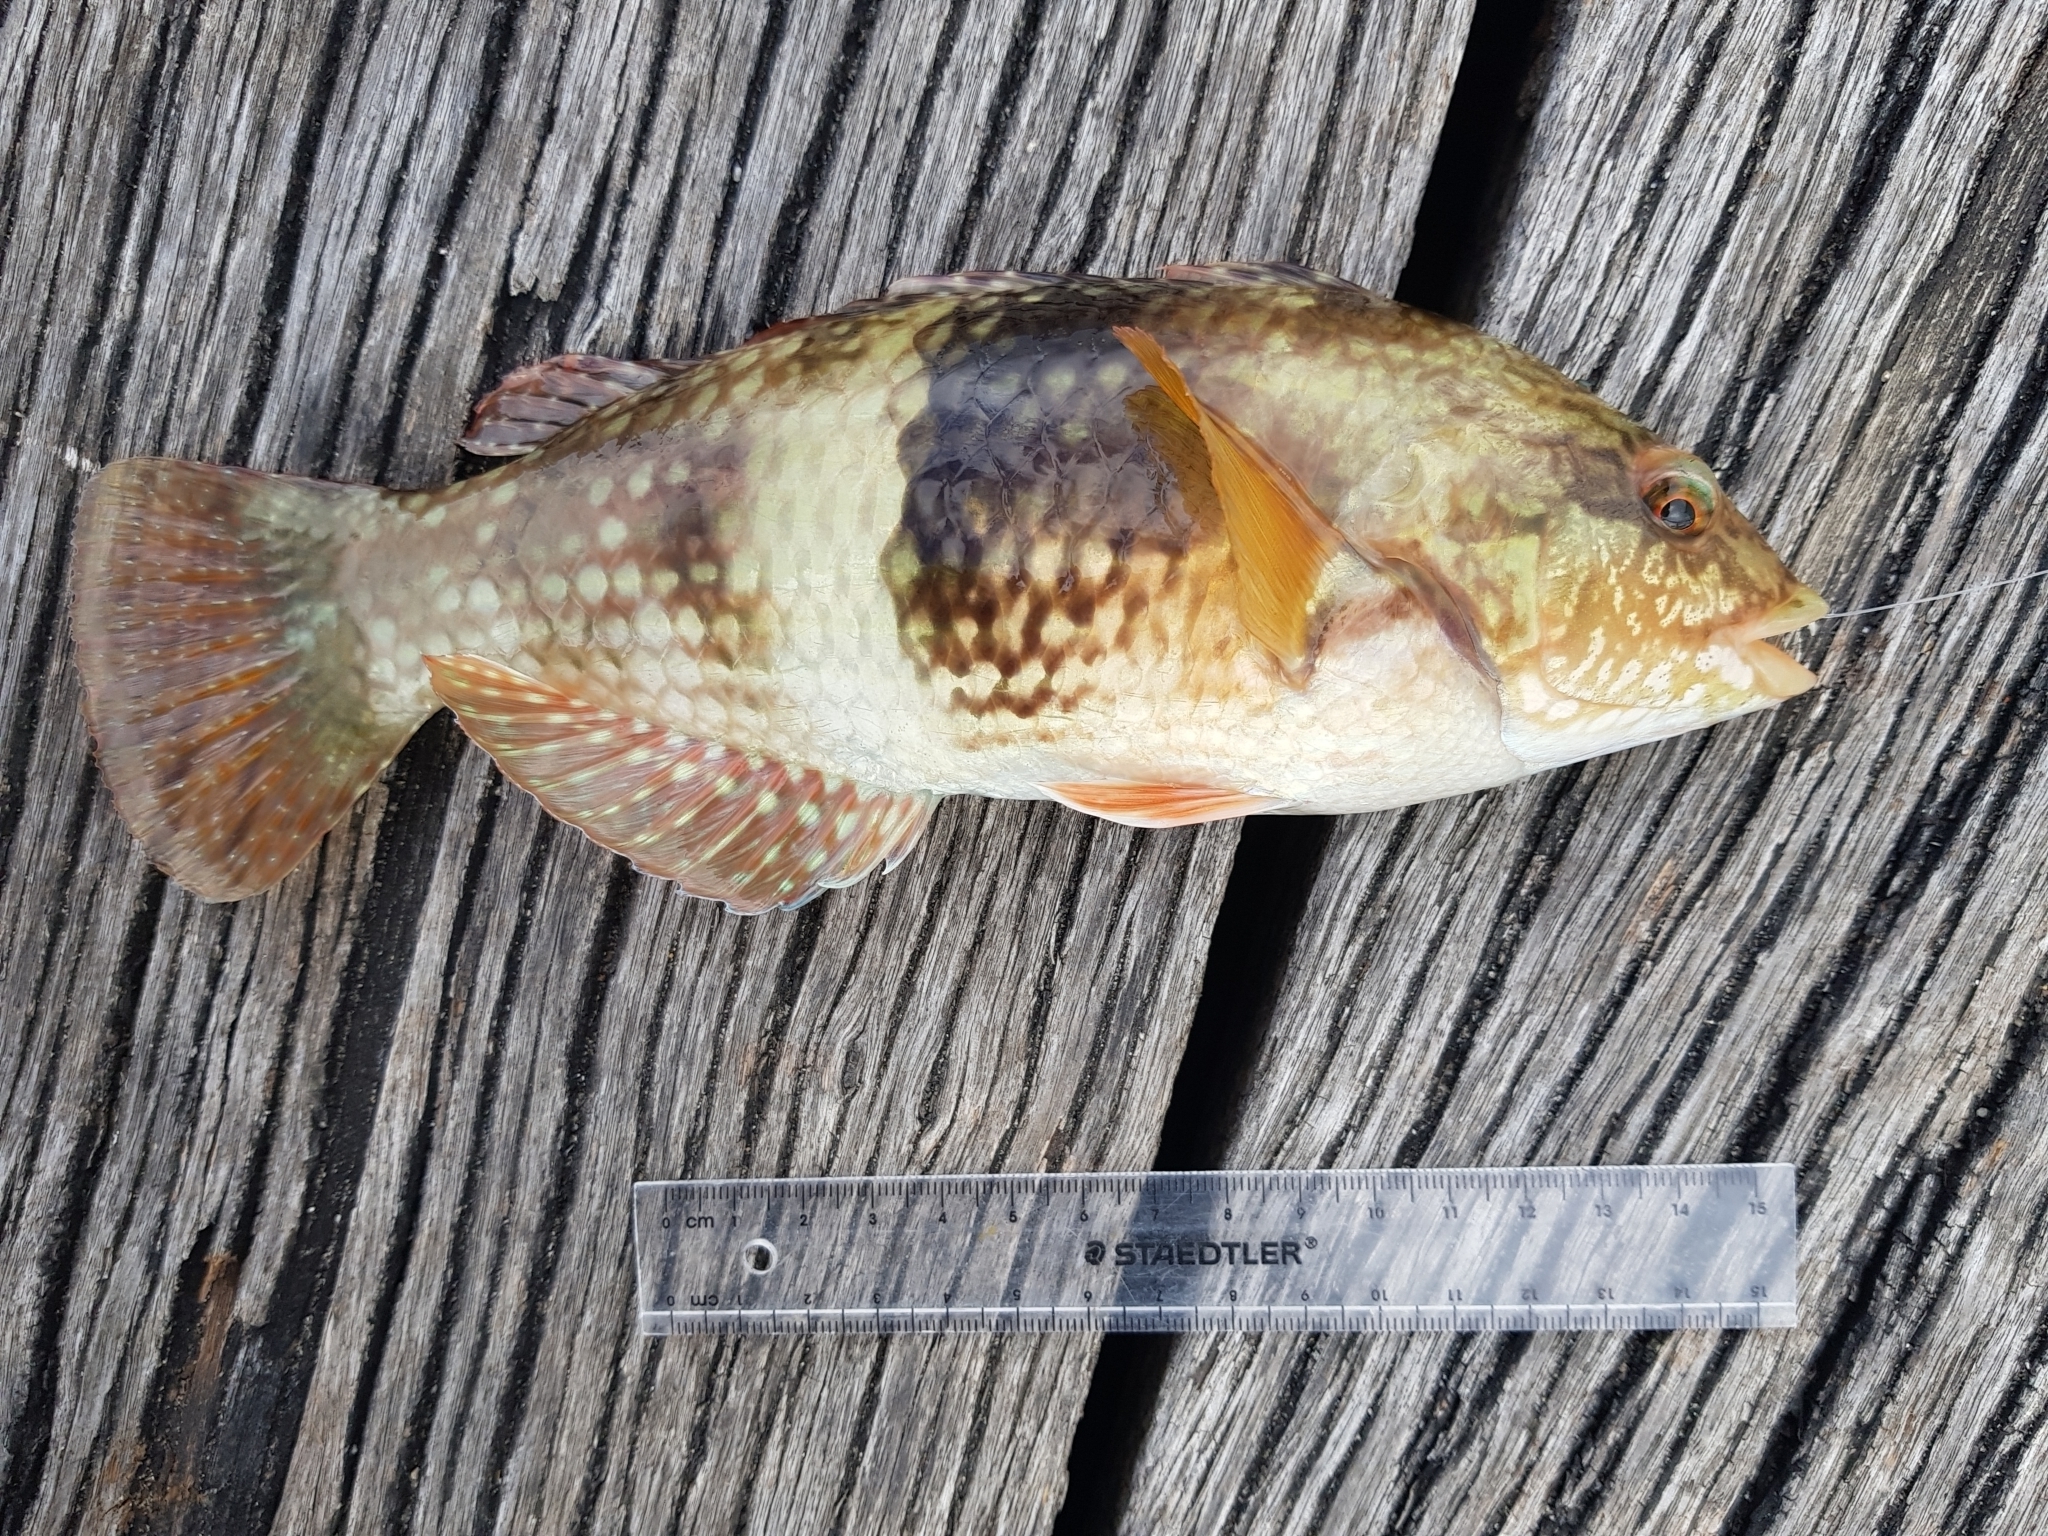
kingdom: Animalia
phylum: Chordata
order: Perciformes
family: Labridae
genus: Notolabrus
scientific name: Notolabrus tetricus
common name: Blue-throated parrotfish
